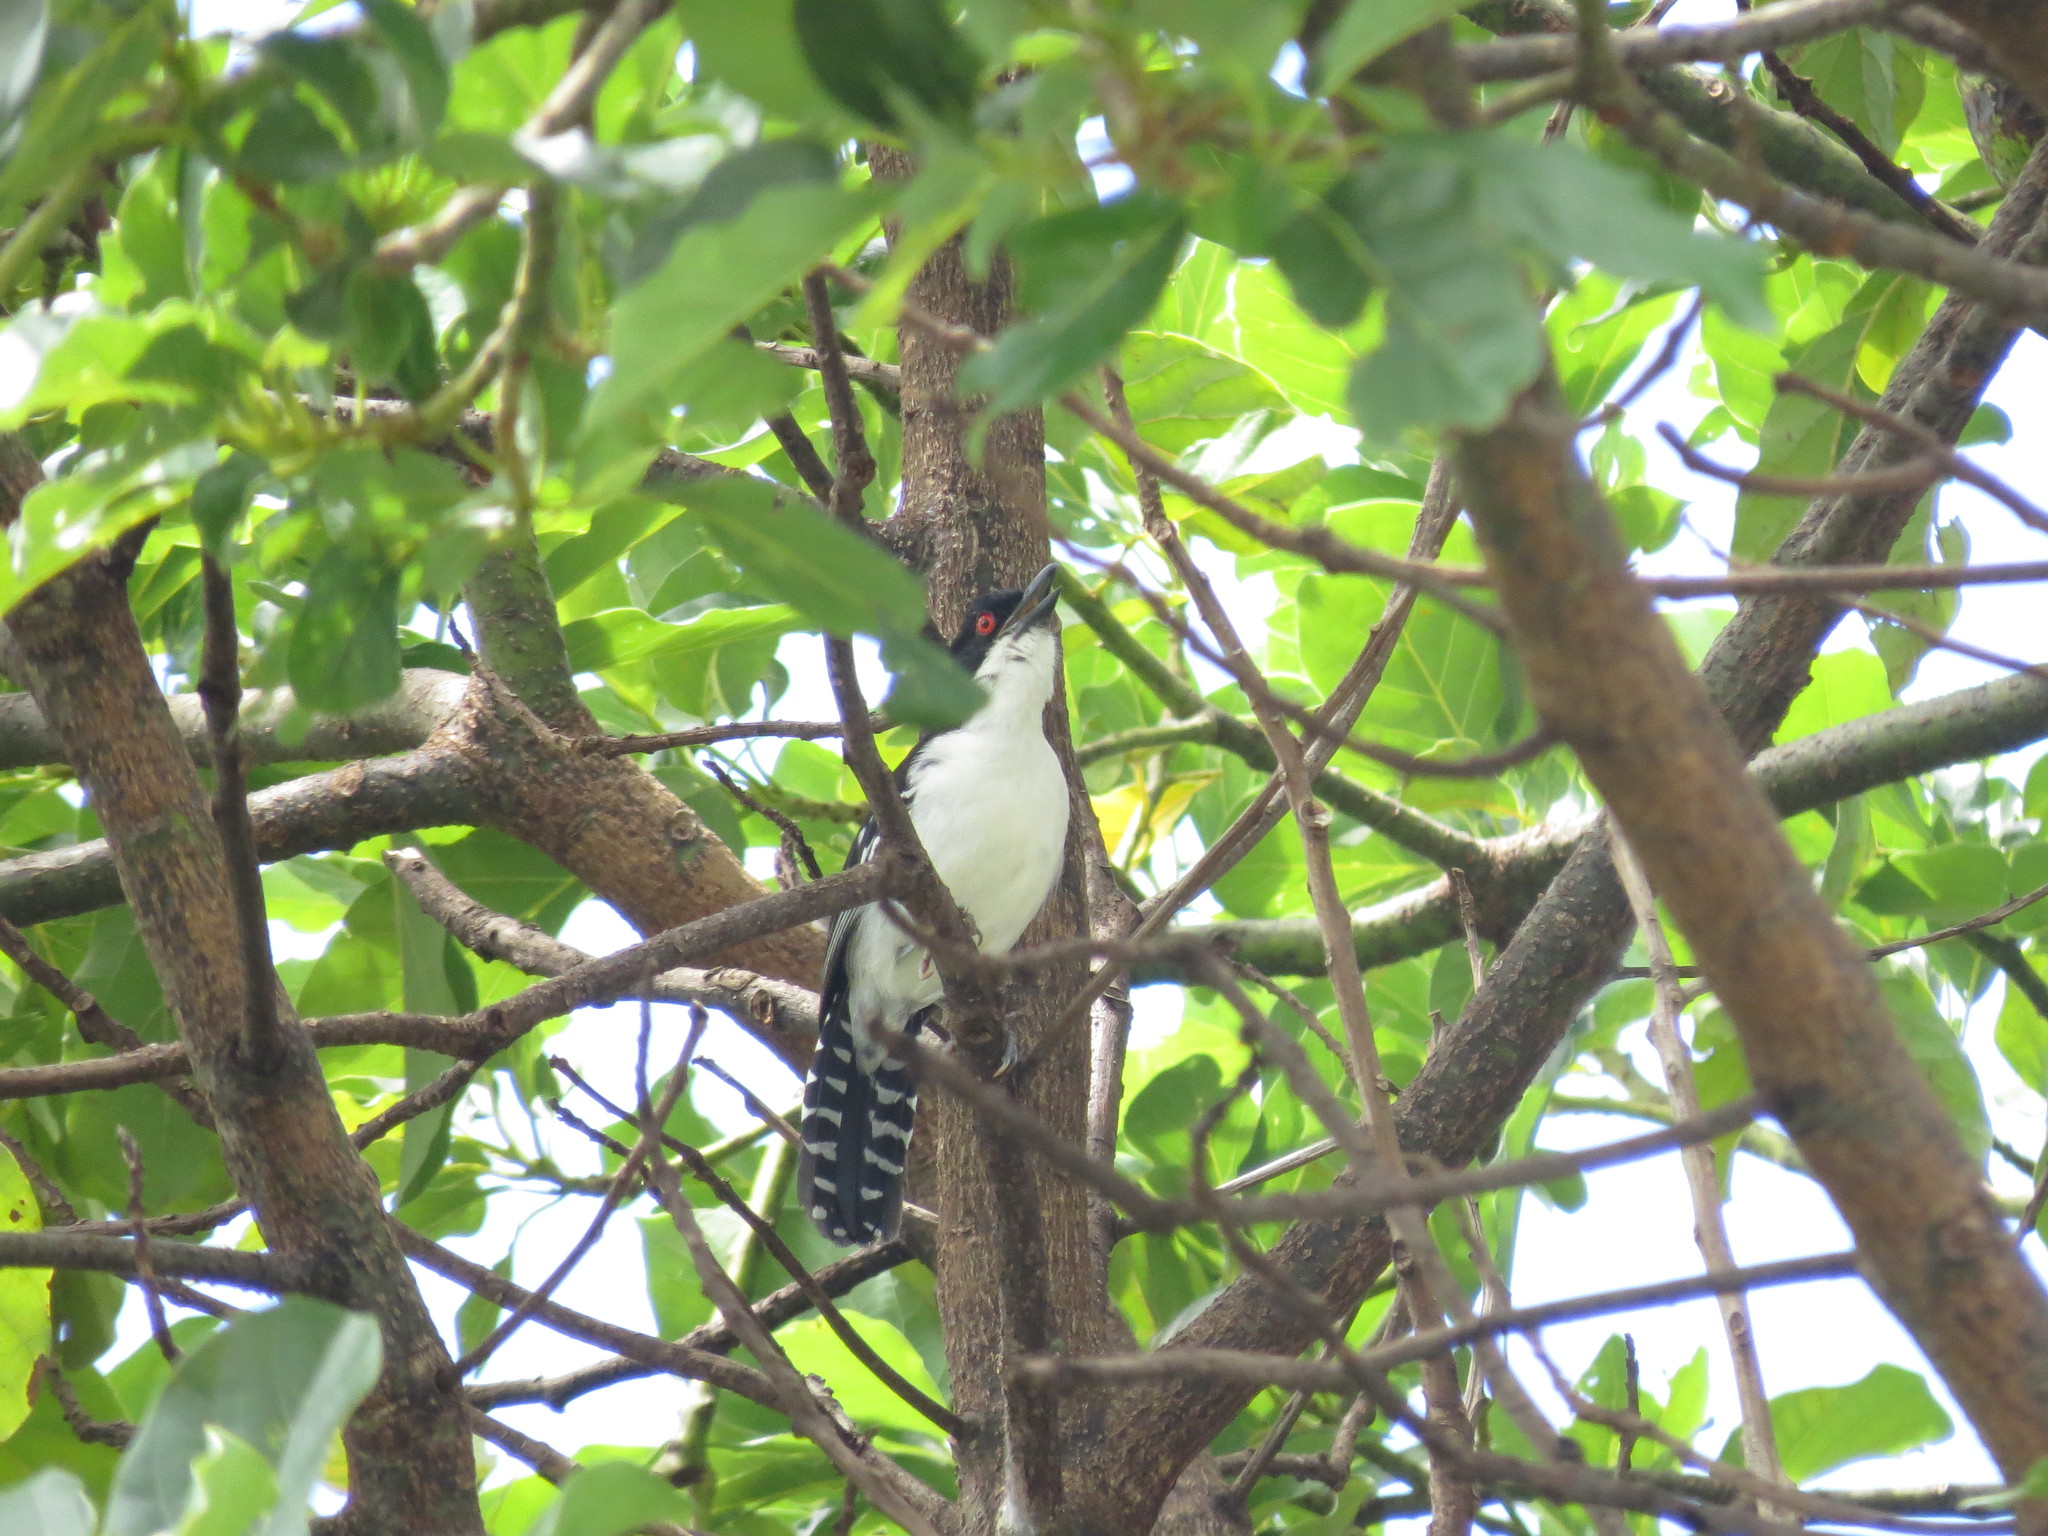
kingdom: Animalia
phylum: Chordata
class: Aves
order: Passeriformes
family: Thamnophilidae
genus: Taraba
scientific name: Taraba major
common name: Great antshrike
